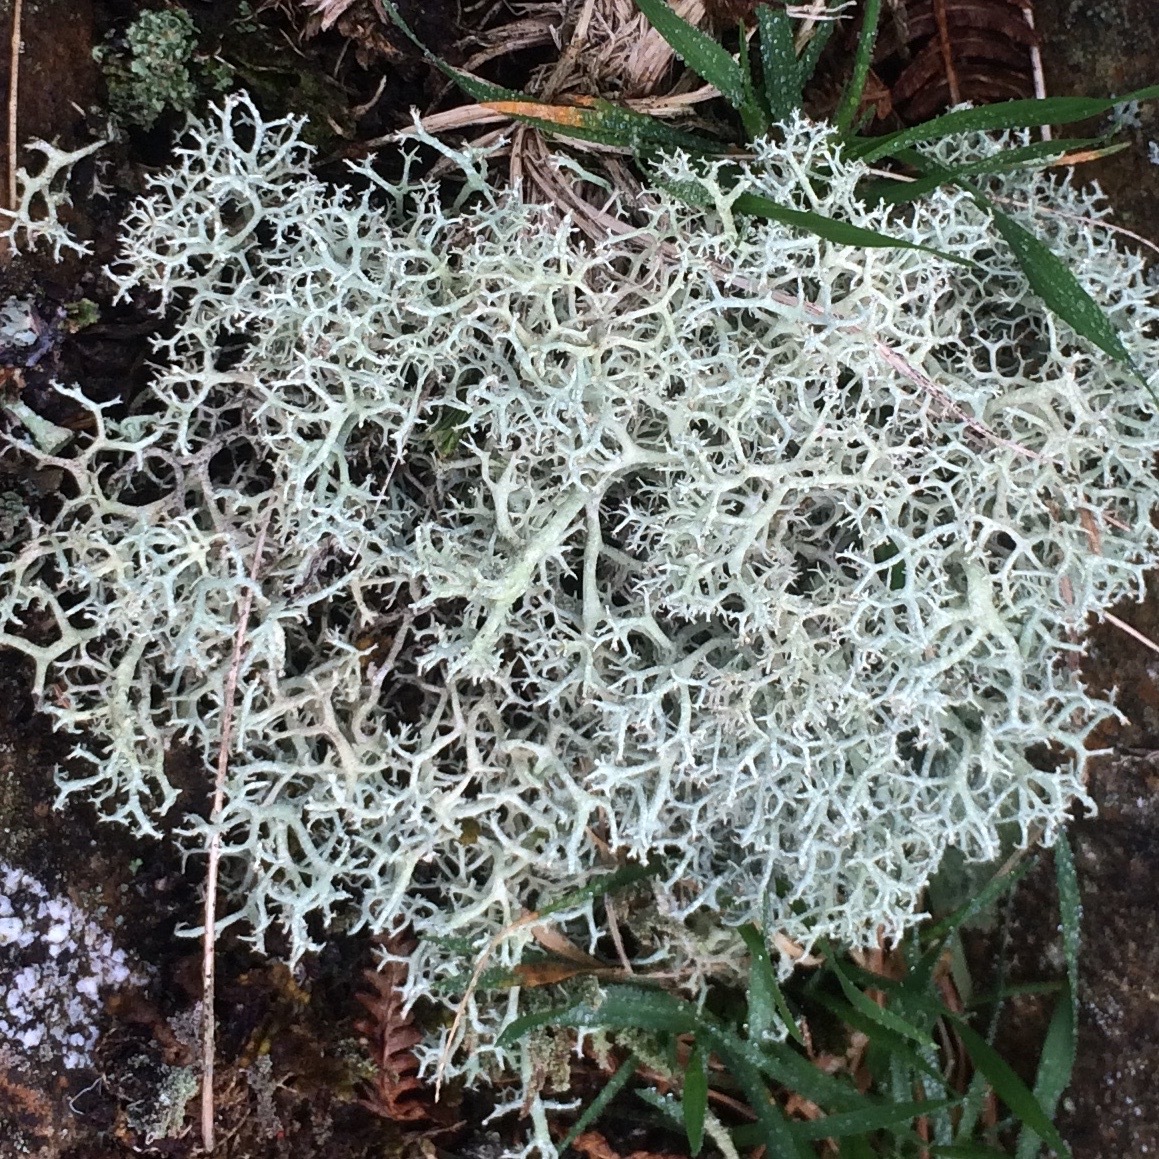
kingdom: Fungi
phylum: Ascomycota
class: Lecanoromycetes
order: Lecanorales
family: Cladoniaceae
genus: Cladonia
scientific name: Cladonia portentosa
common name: Reindeer lichen
